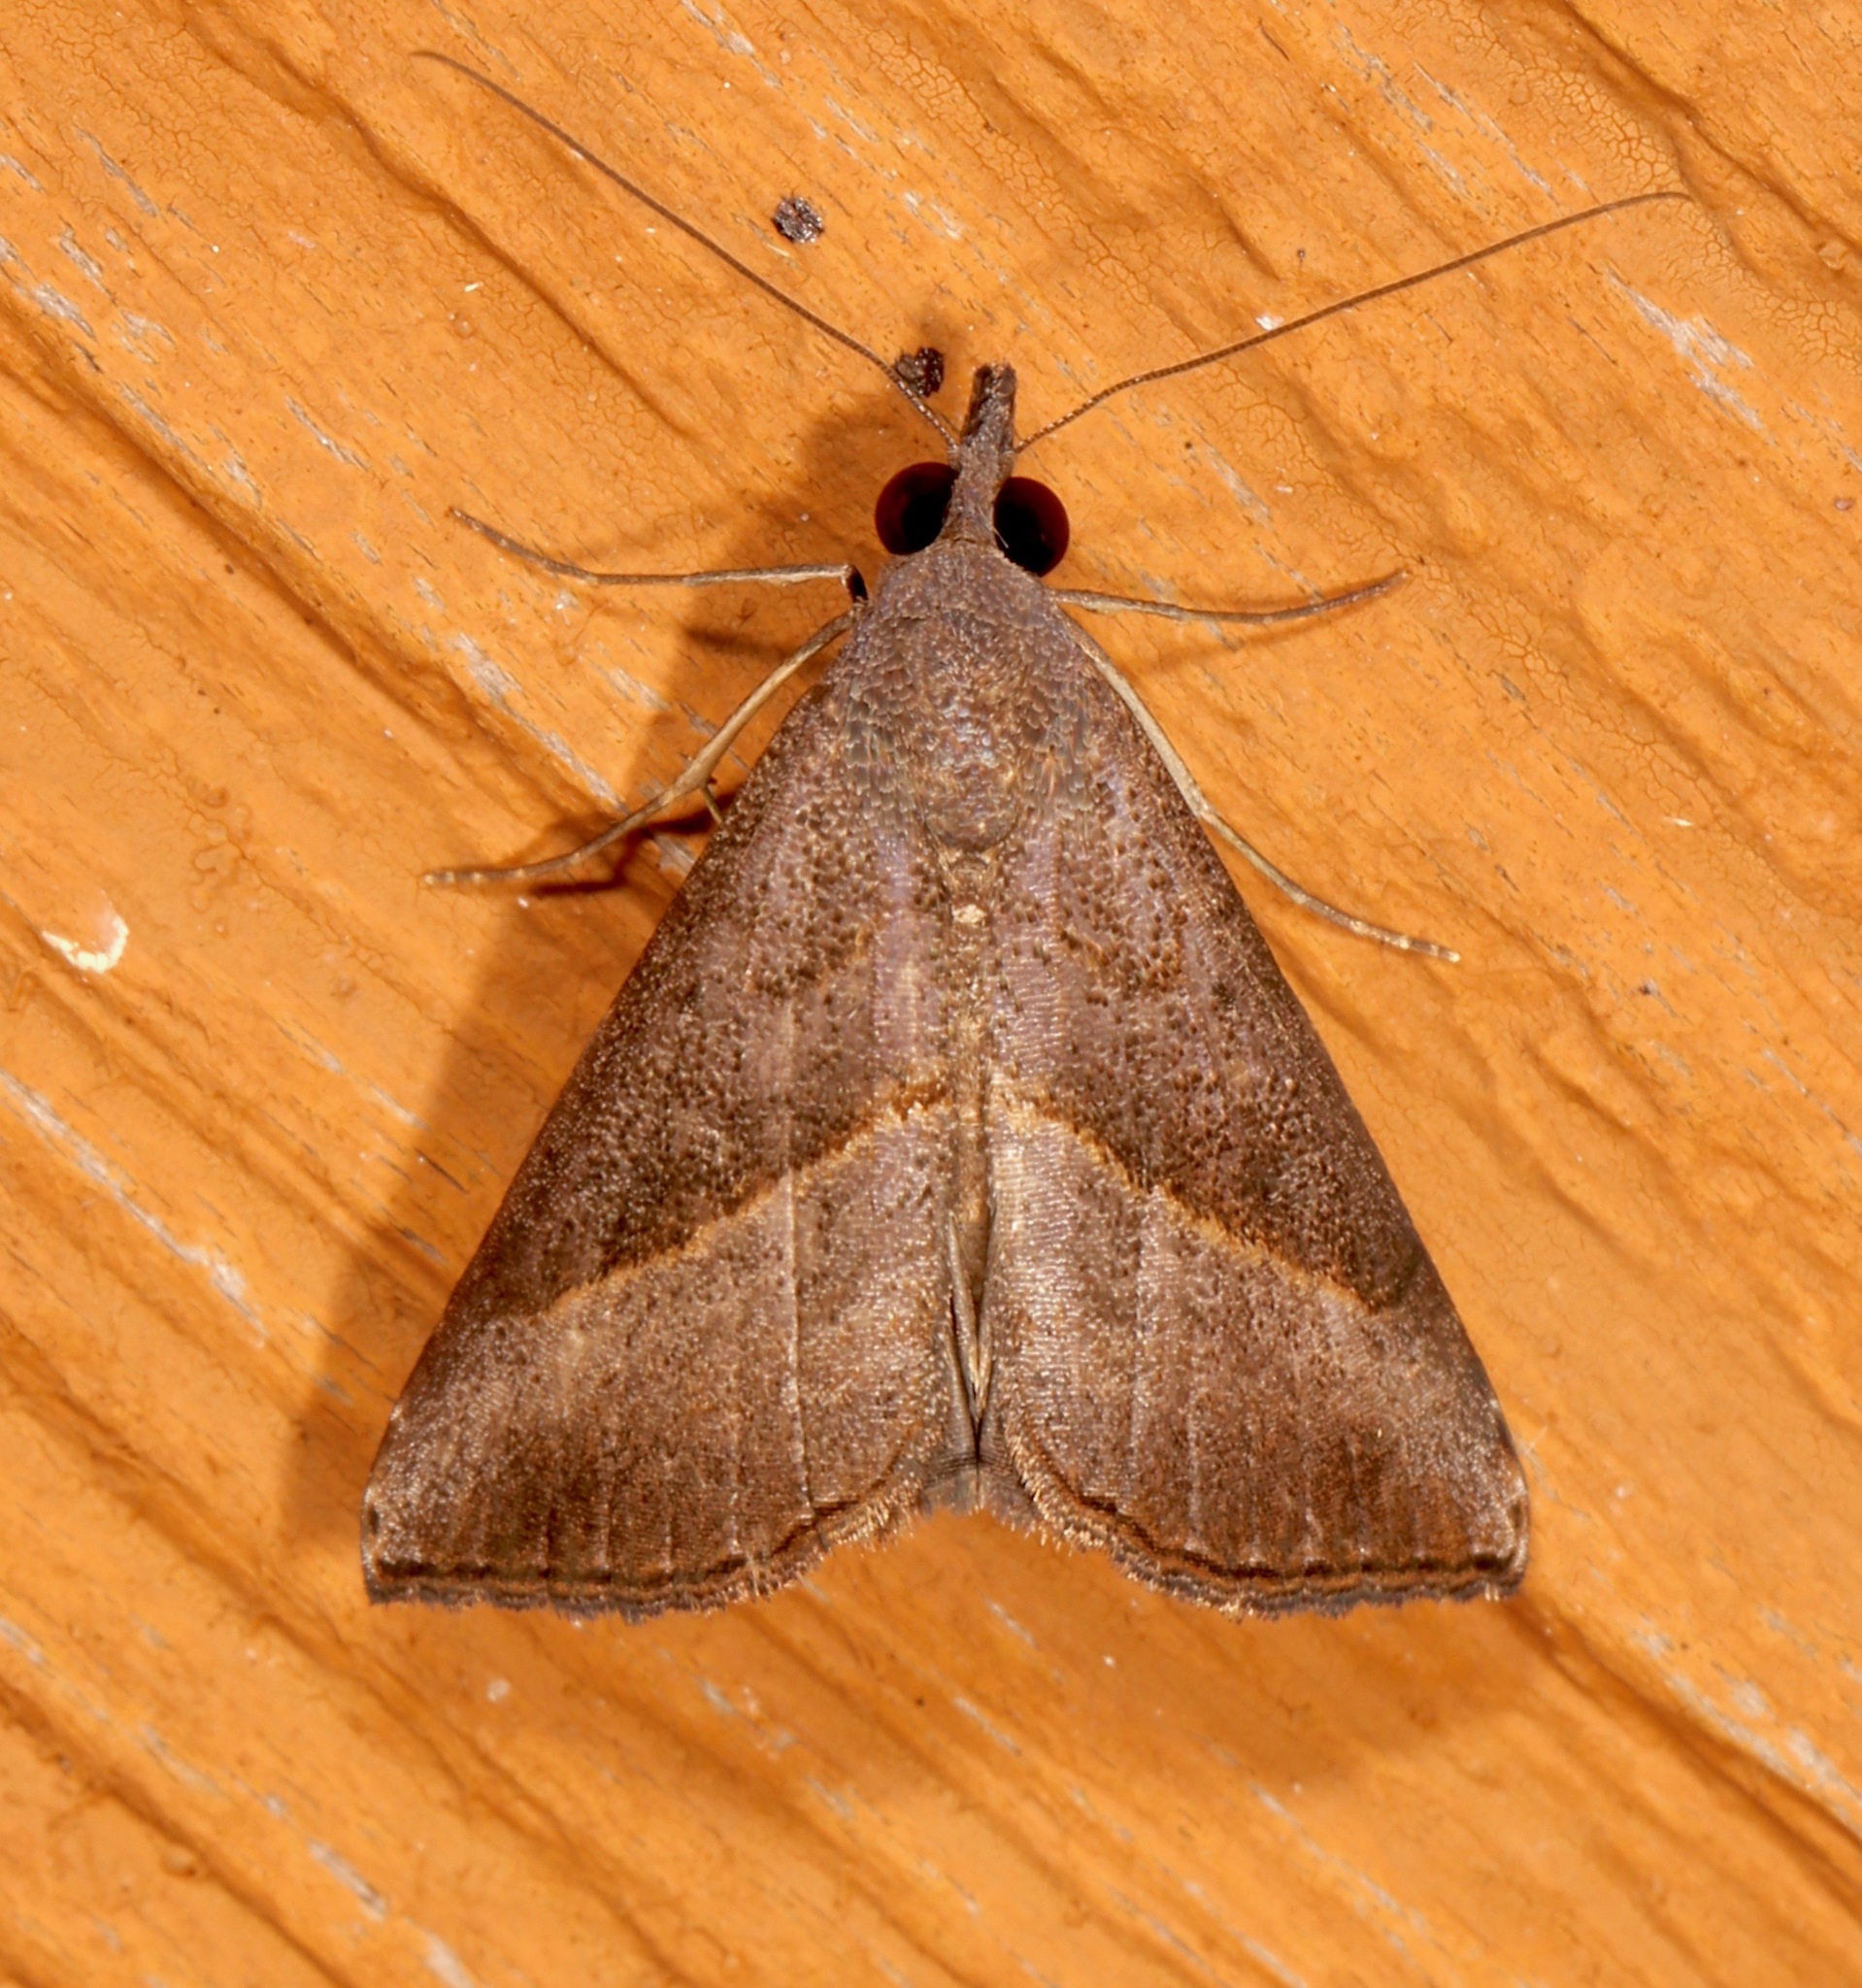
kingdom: Animalia
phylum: Arthropoda
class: Insecta
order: Lepidoptera
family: Erebidae
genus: Hypena
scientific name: Hypena degesalis
